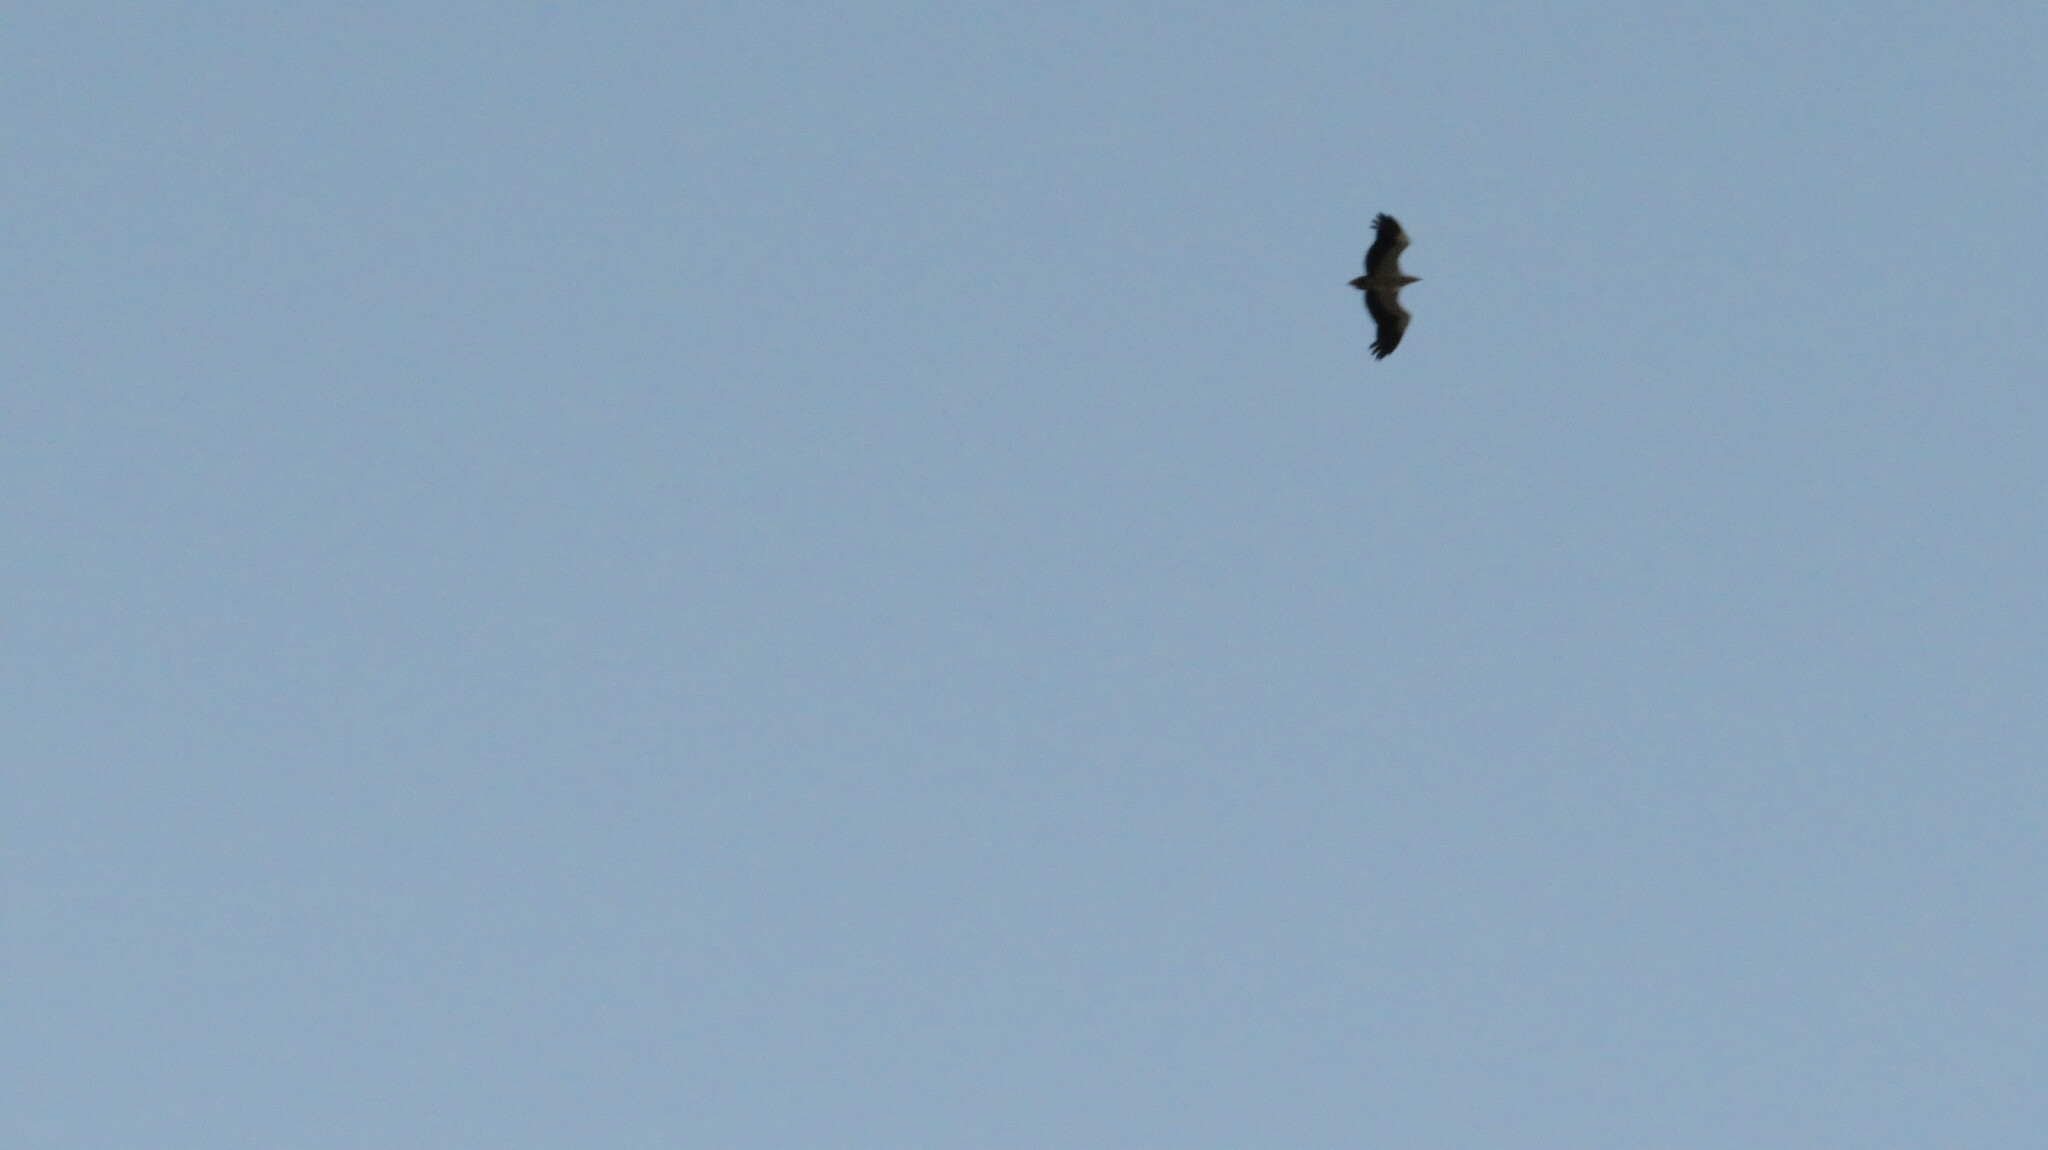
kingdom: Animalia
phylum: Chordata
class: Aves
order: Accipitriformes
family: Accipitridae
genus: Haliaeetus
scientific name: Haliaeetus leucogaster
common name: White-bellied sea eagle
